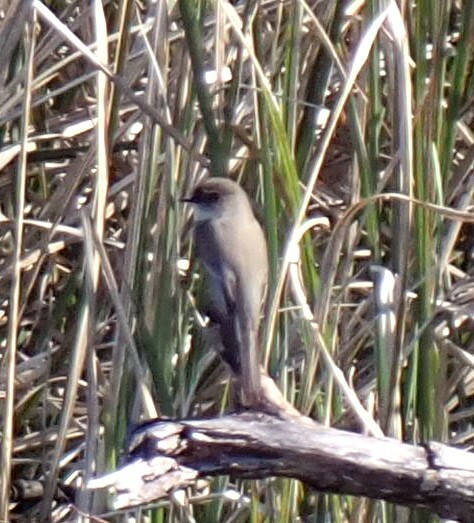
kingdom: Animalia
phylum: Chordata
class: Aves
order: Passeriformes
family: Tyrannidae
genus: Sayornis
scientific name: Sayornis phoebe
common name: Eastern phoebe
